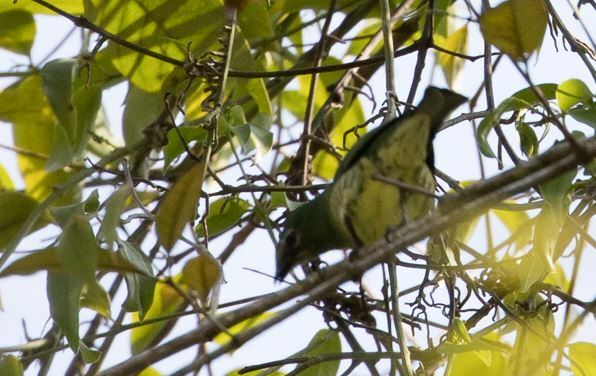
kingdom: Animalia
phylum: Chordata
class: Aves
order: Passeriformes
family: Thraupidae
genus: Tersina
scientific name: Tersina viridis
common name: Swallow tanager
